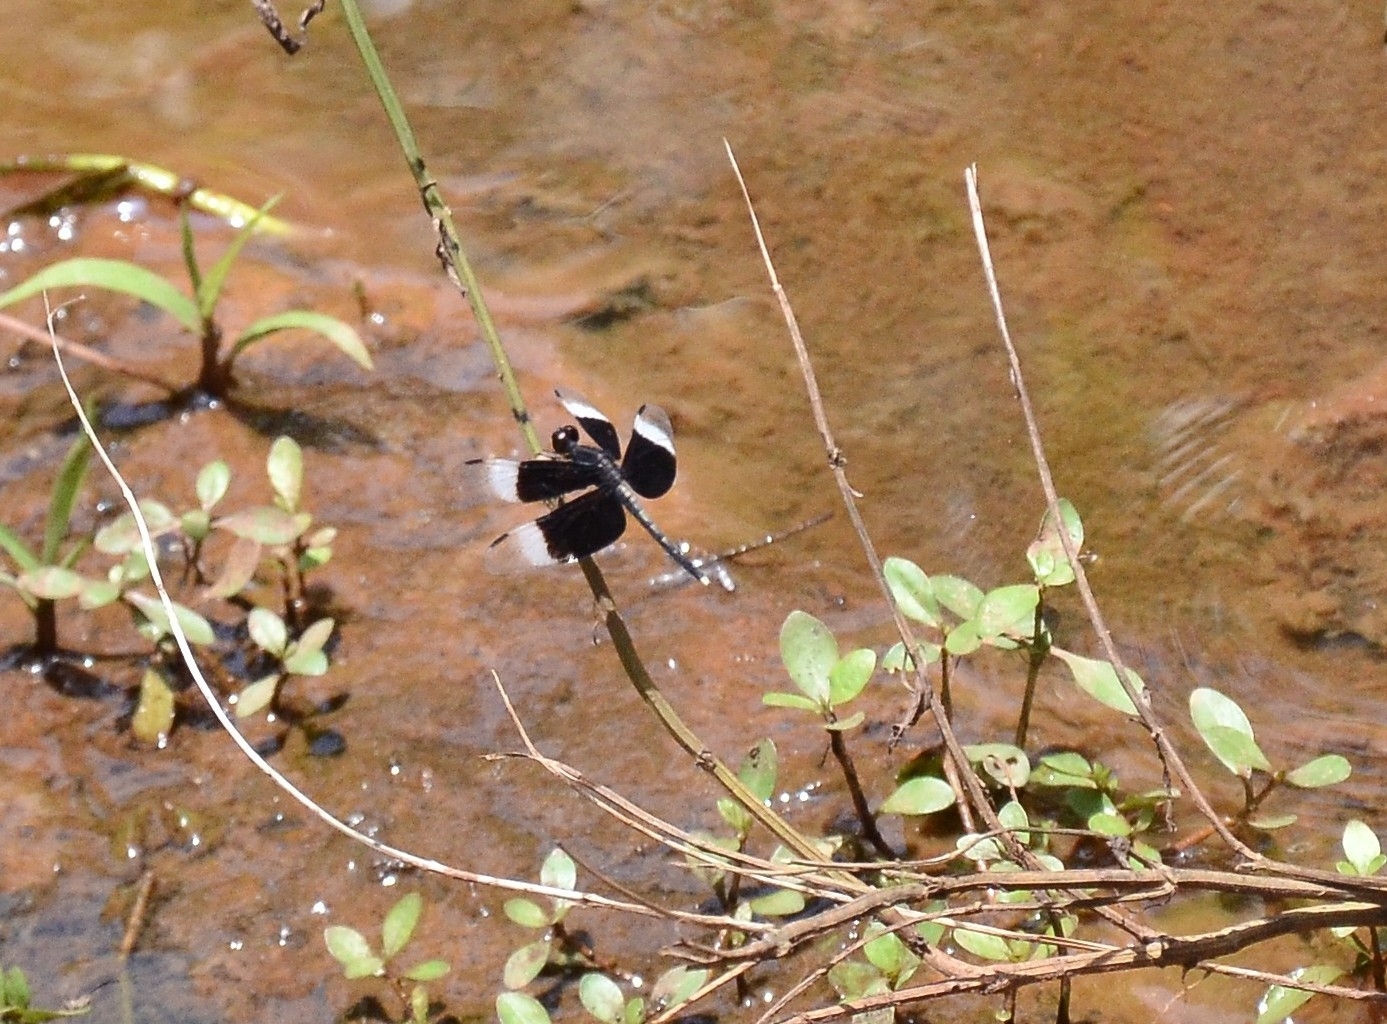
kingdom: Animalia
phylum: Arthropoda
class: Insecta
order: Odonata
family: Libellulidae
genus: Neurothemis
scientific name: Neurothemis tullia
